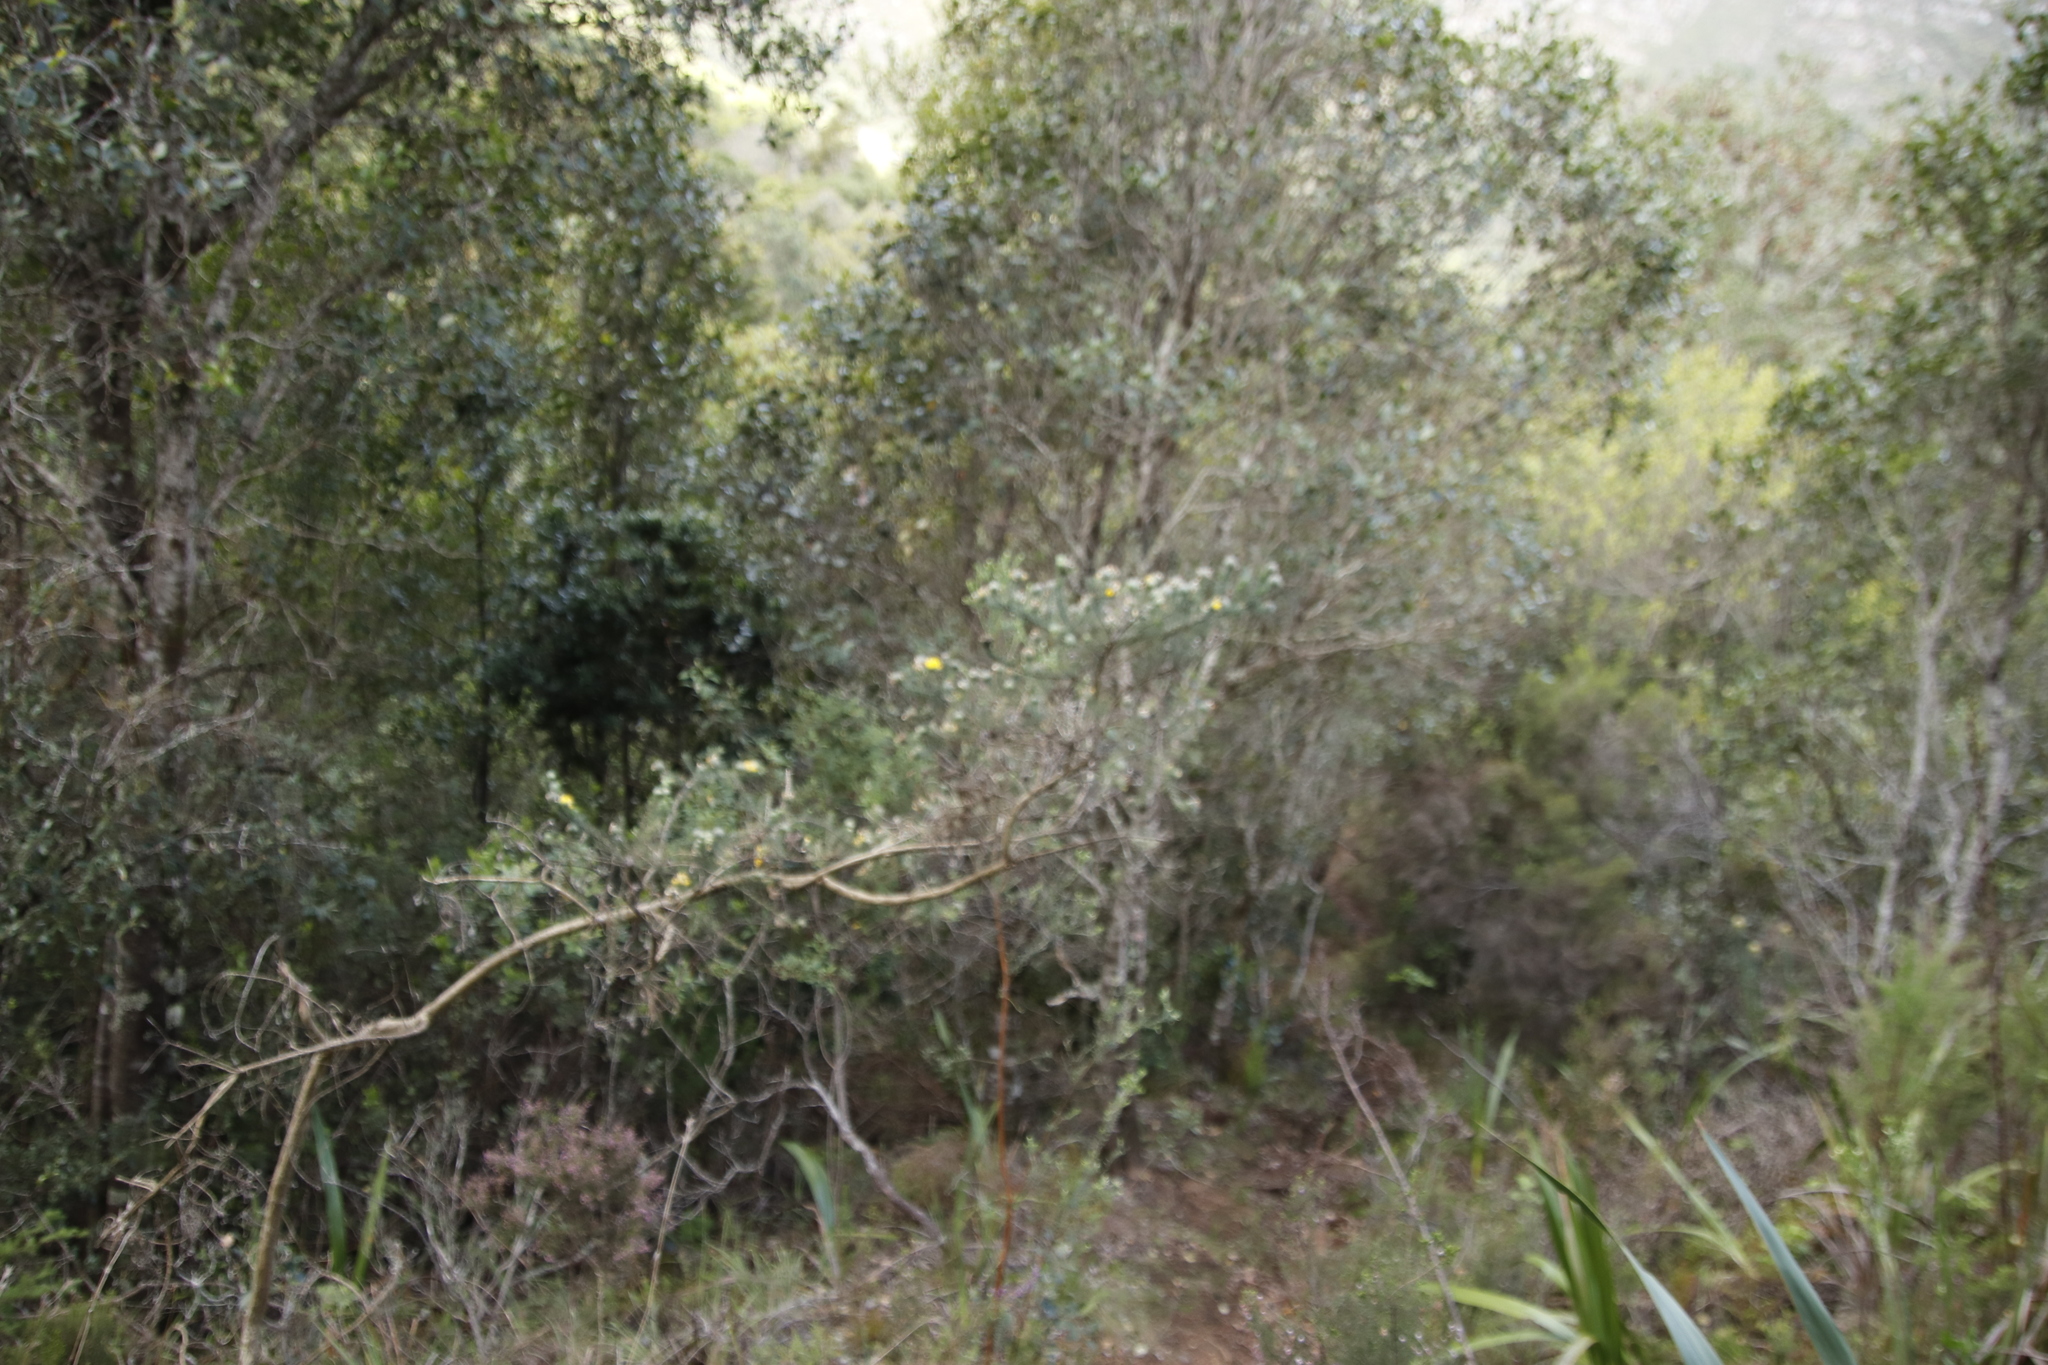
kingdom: Plantae
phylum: Tracheophyta
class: Magnoliopsida
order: Fabales
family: Fabaceae
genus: Aspalathus
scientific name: Aspalathus chenopoda
